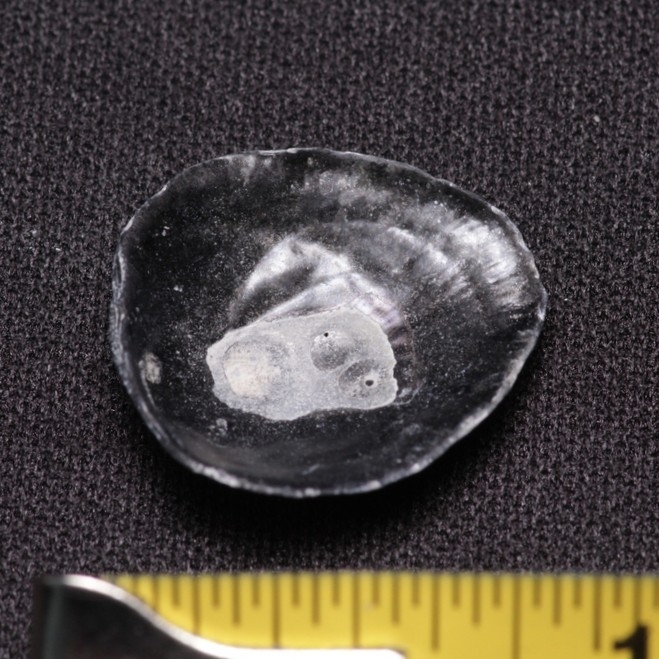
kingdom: Animalia
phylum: Mollusca
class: Bivalvia
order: Pectinida
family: Anomiidae
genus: Anomia
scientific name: Anomia simplex
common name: Common jingle shell
